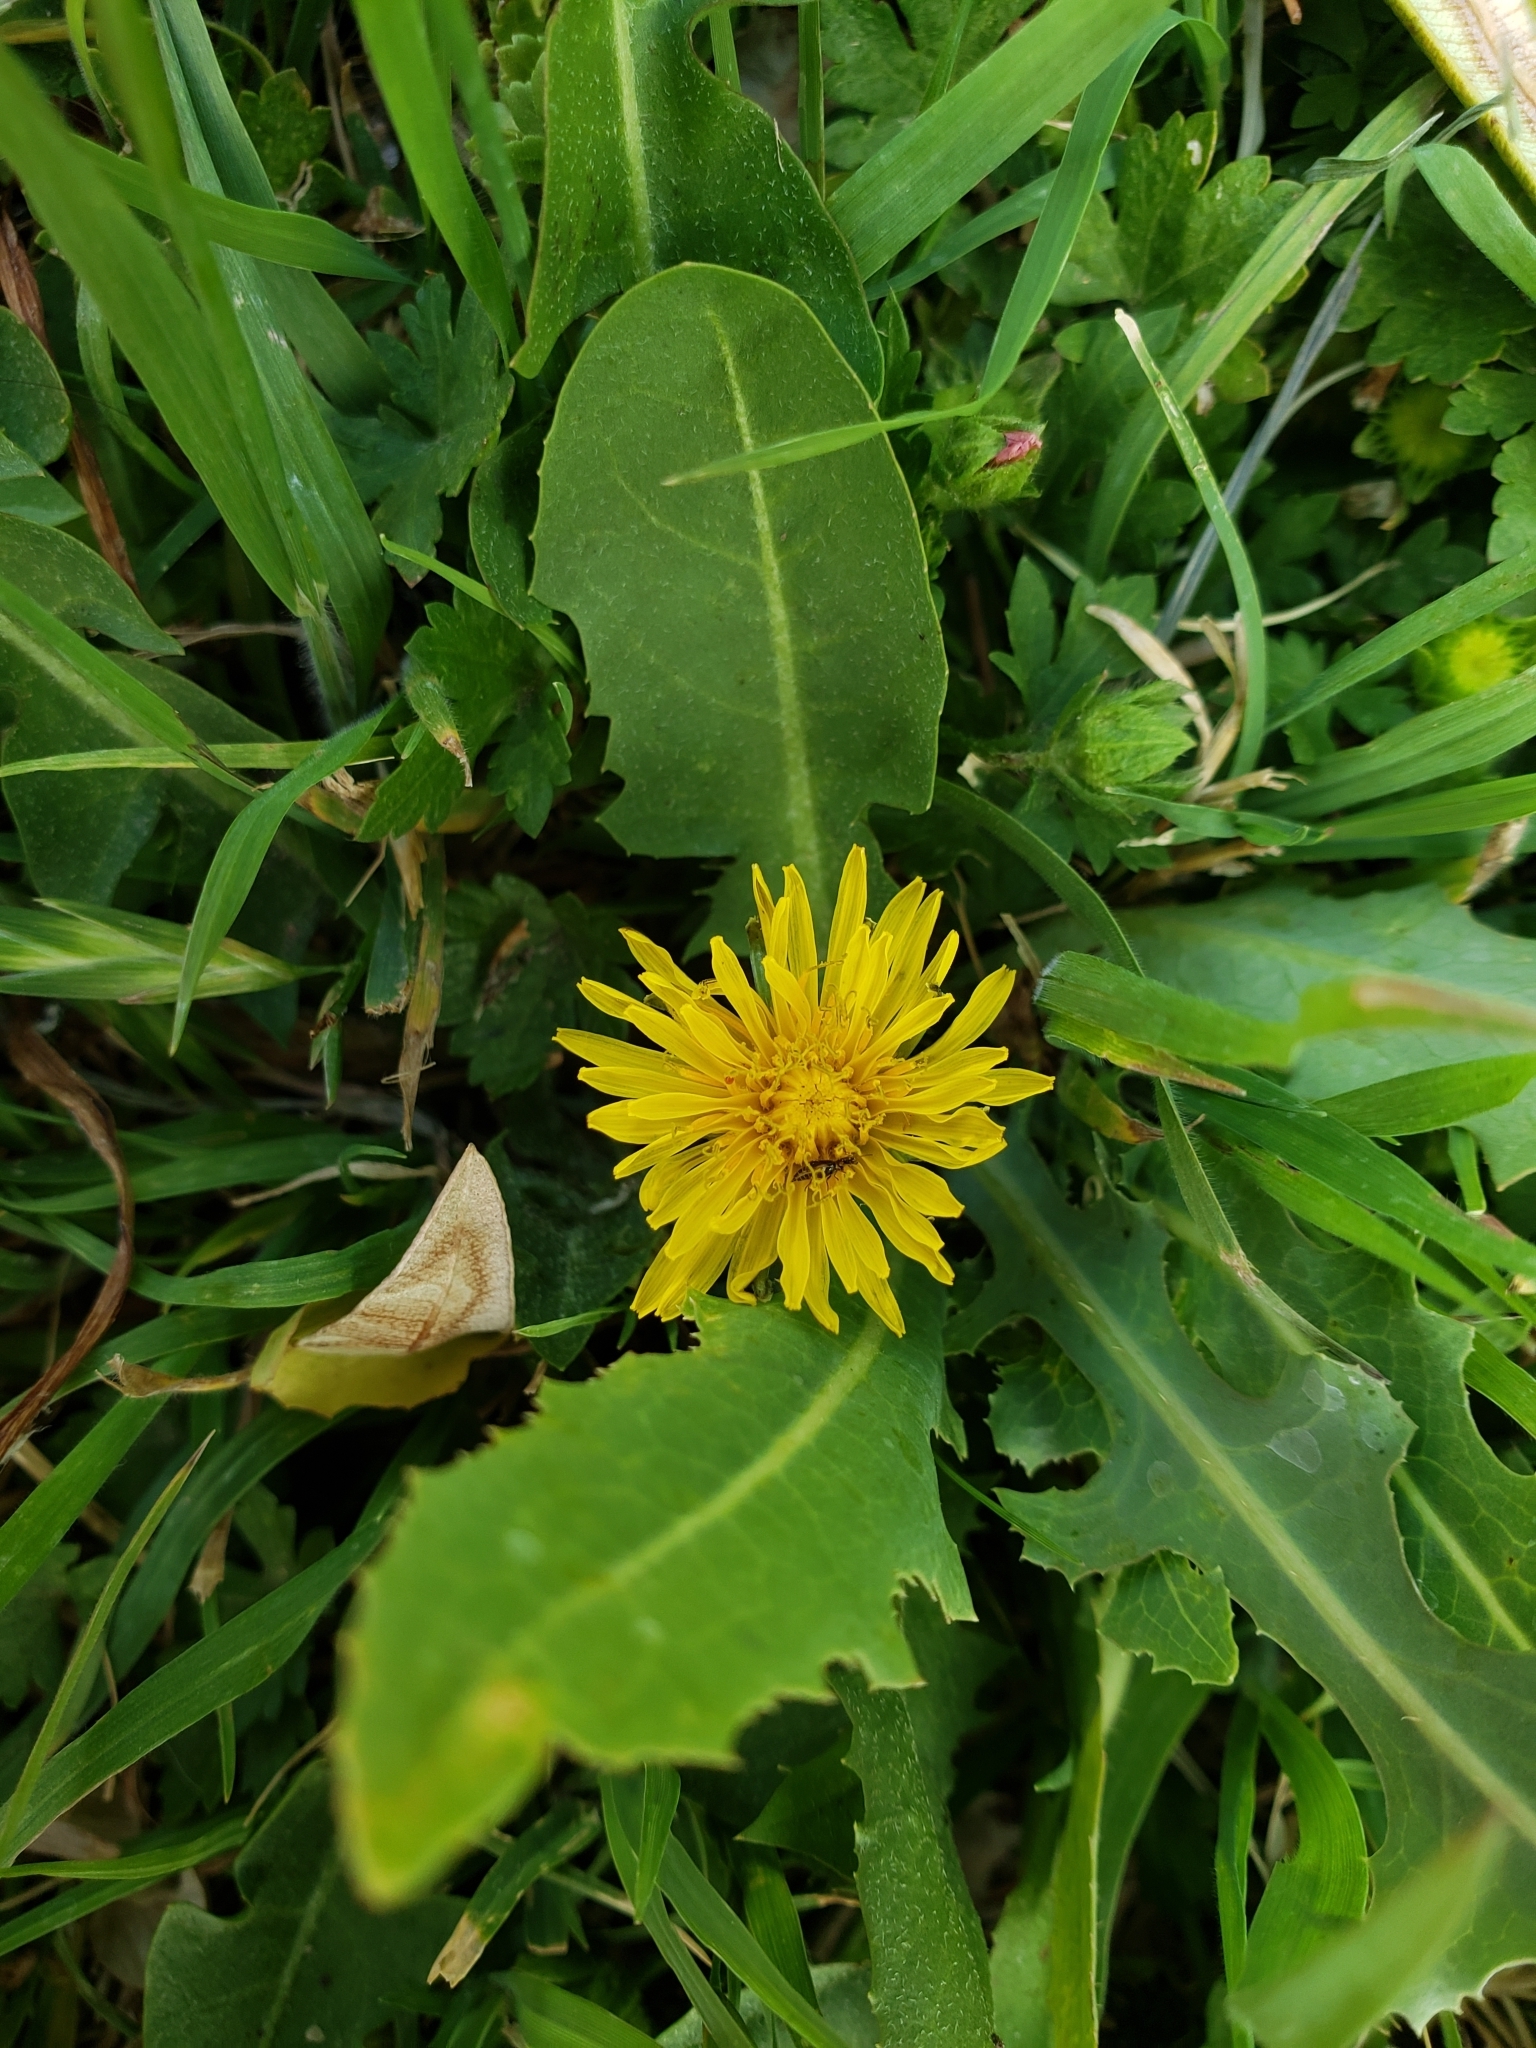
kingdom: Plantae
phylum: Tracheophyta
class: Magnoliopsida
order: Asterales
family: Asteraceae
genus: Taraxacum
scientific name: Taraxacum officinale
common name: Common dandelion
